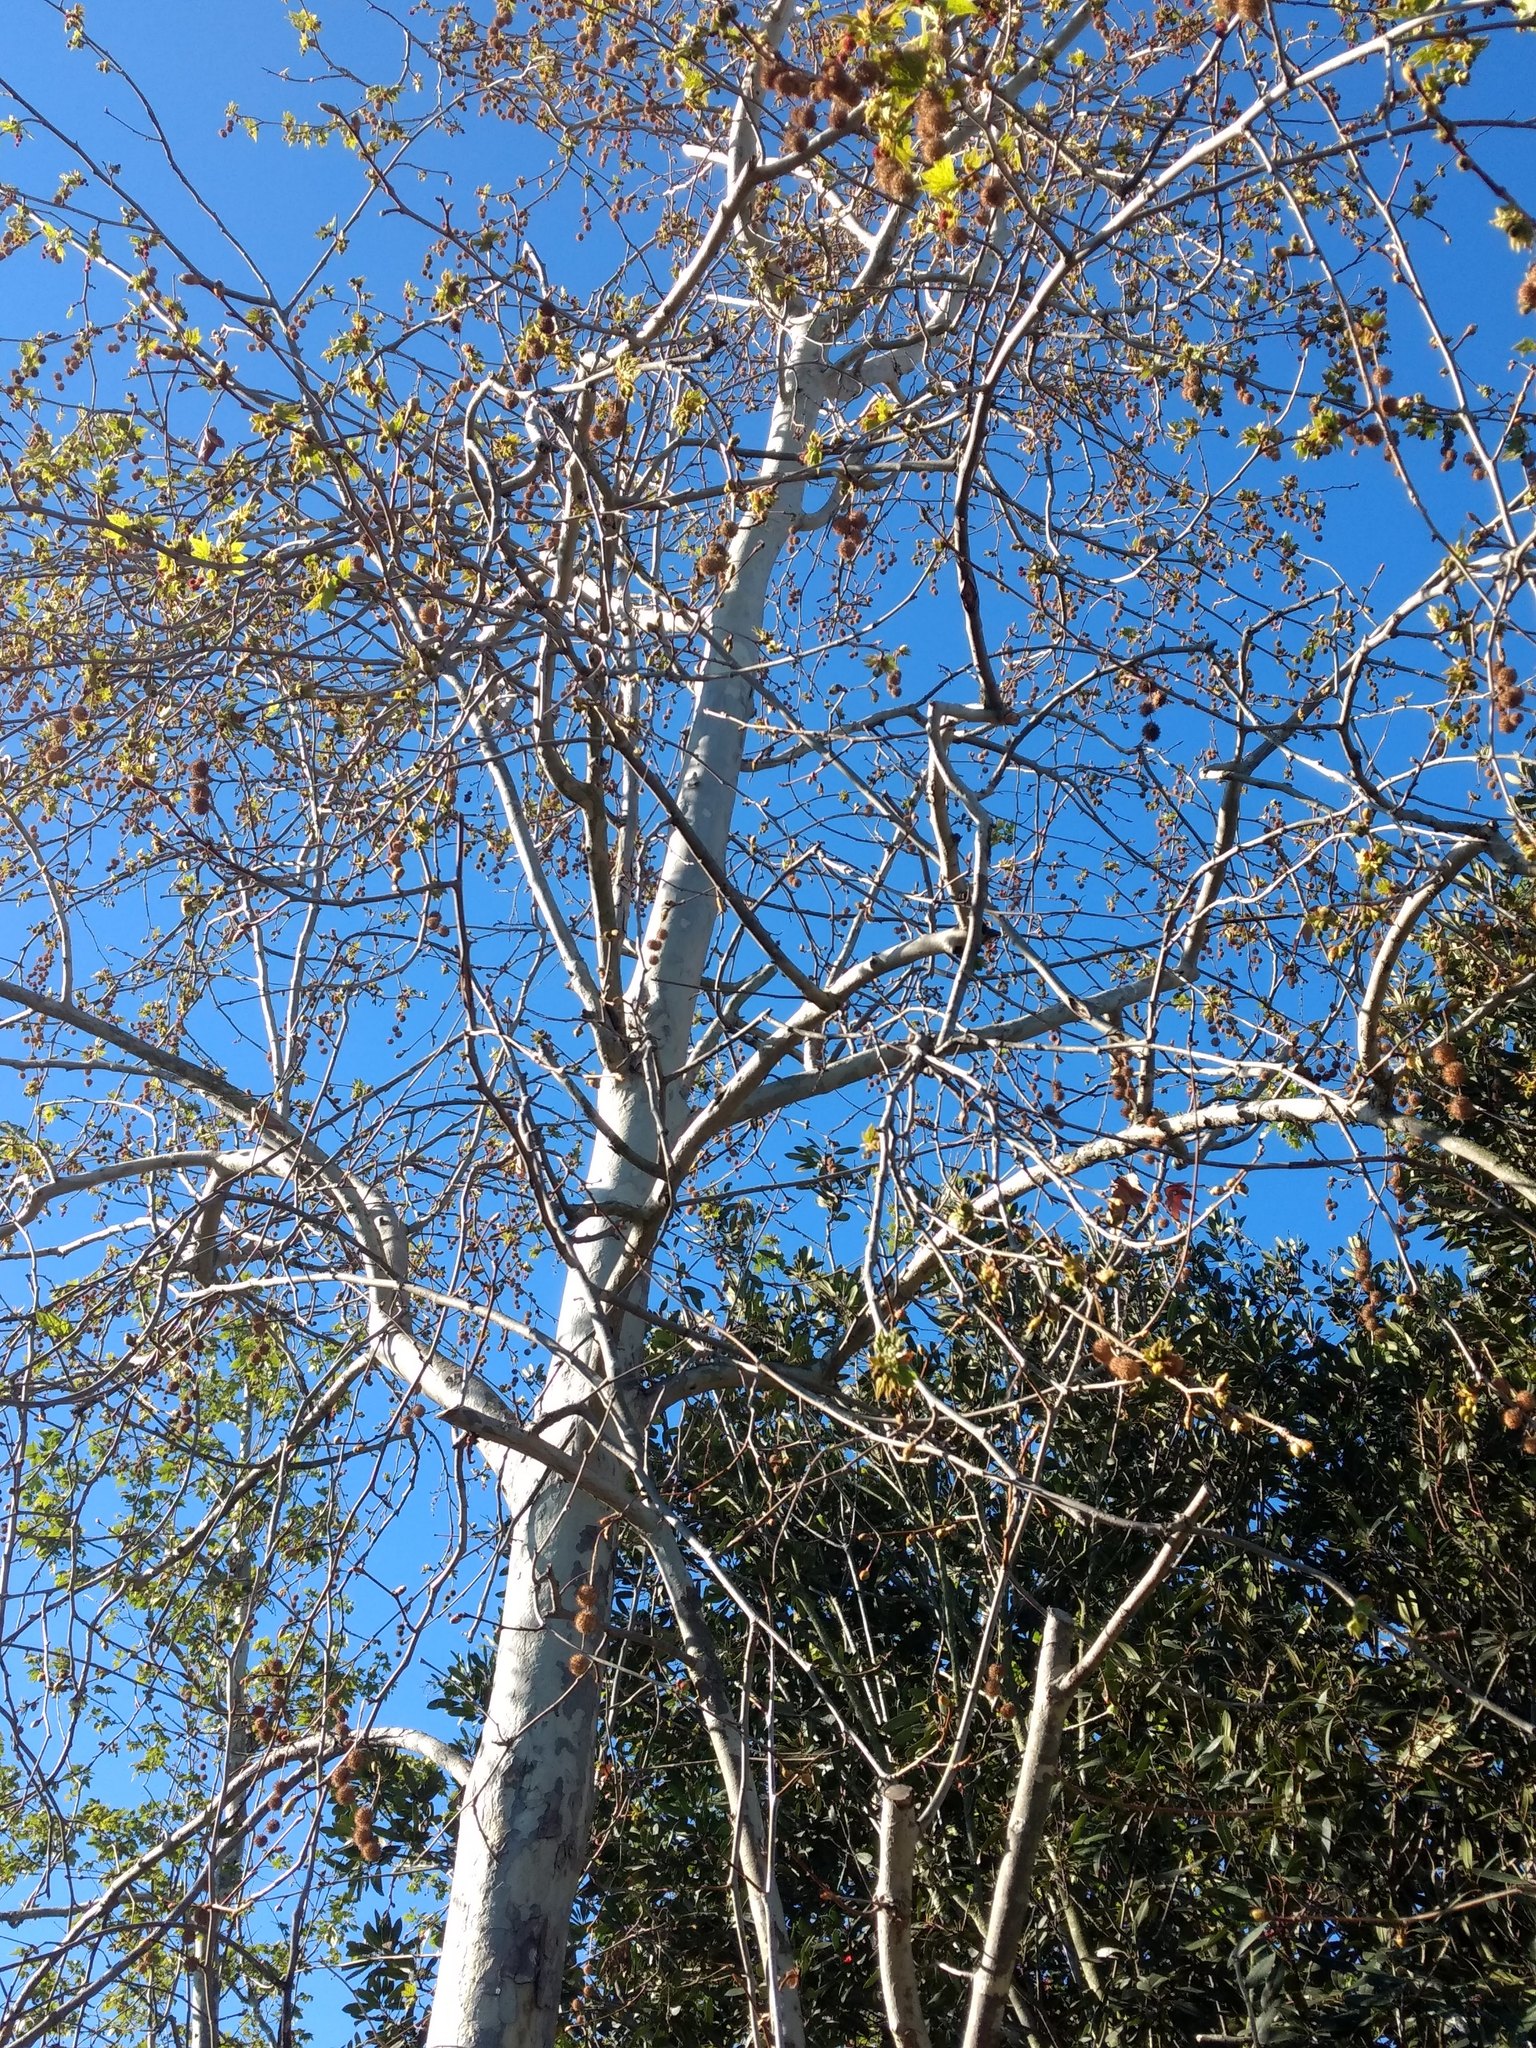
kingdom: Plantae
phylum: Tracheophyta
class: Magnoliopsida
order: Proteales
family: Platanaceae
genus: Platanus
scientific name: Platanus racemosa
